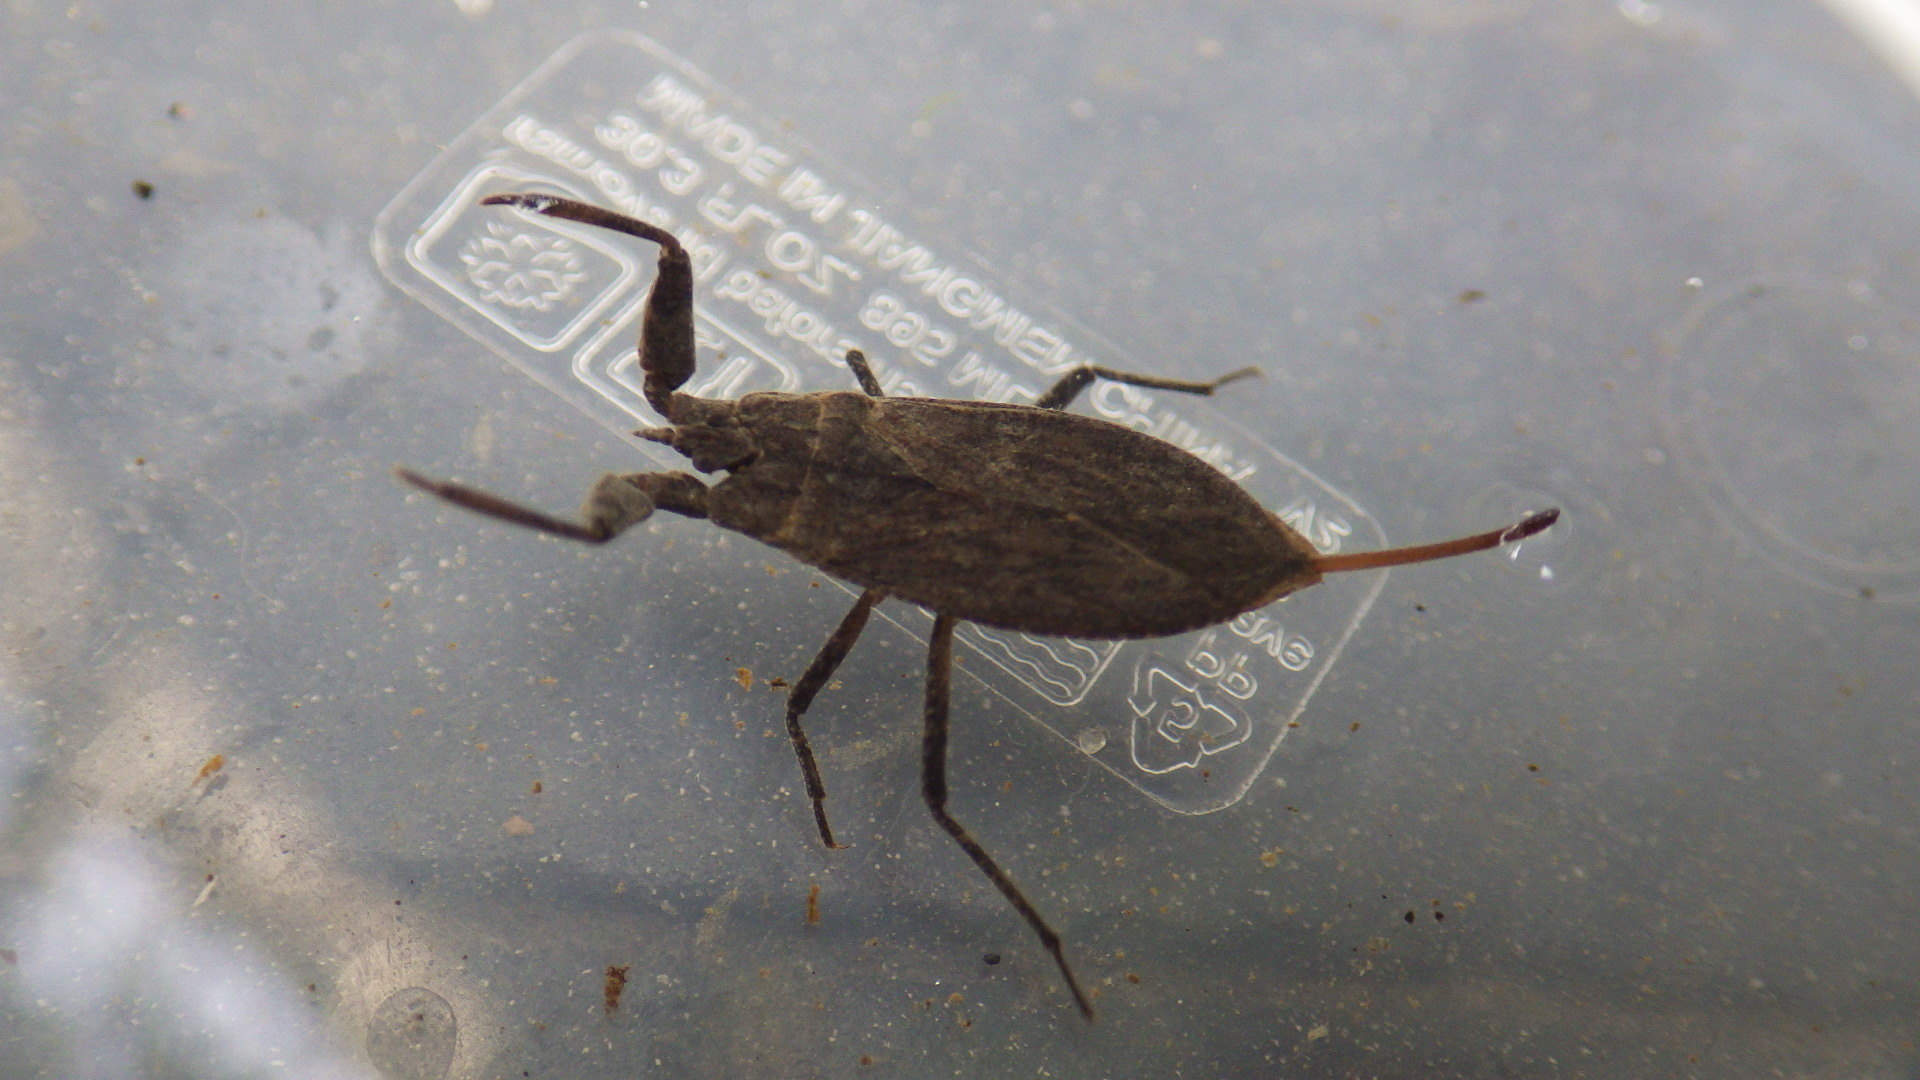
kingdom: Animalia
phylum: Arthropoda
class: Insecta
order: Hemiptera
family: Nepidae
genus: Nepa
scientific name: Nepa apiculata
